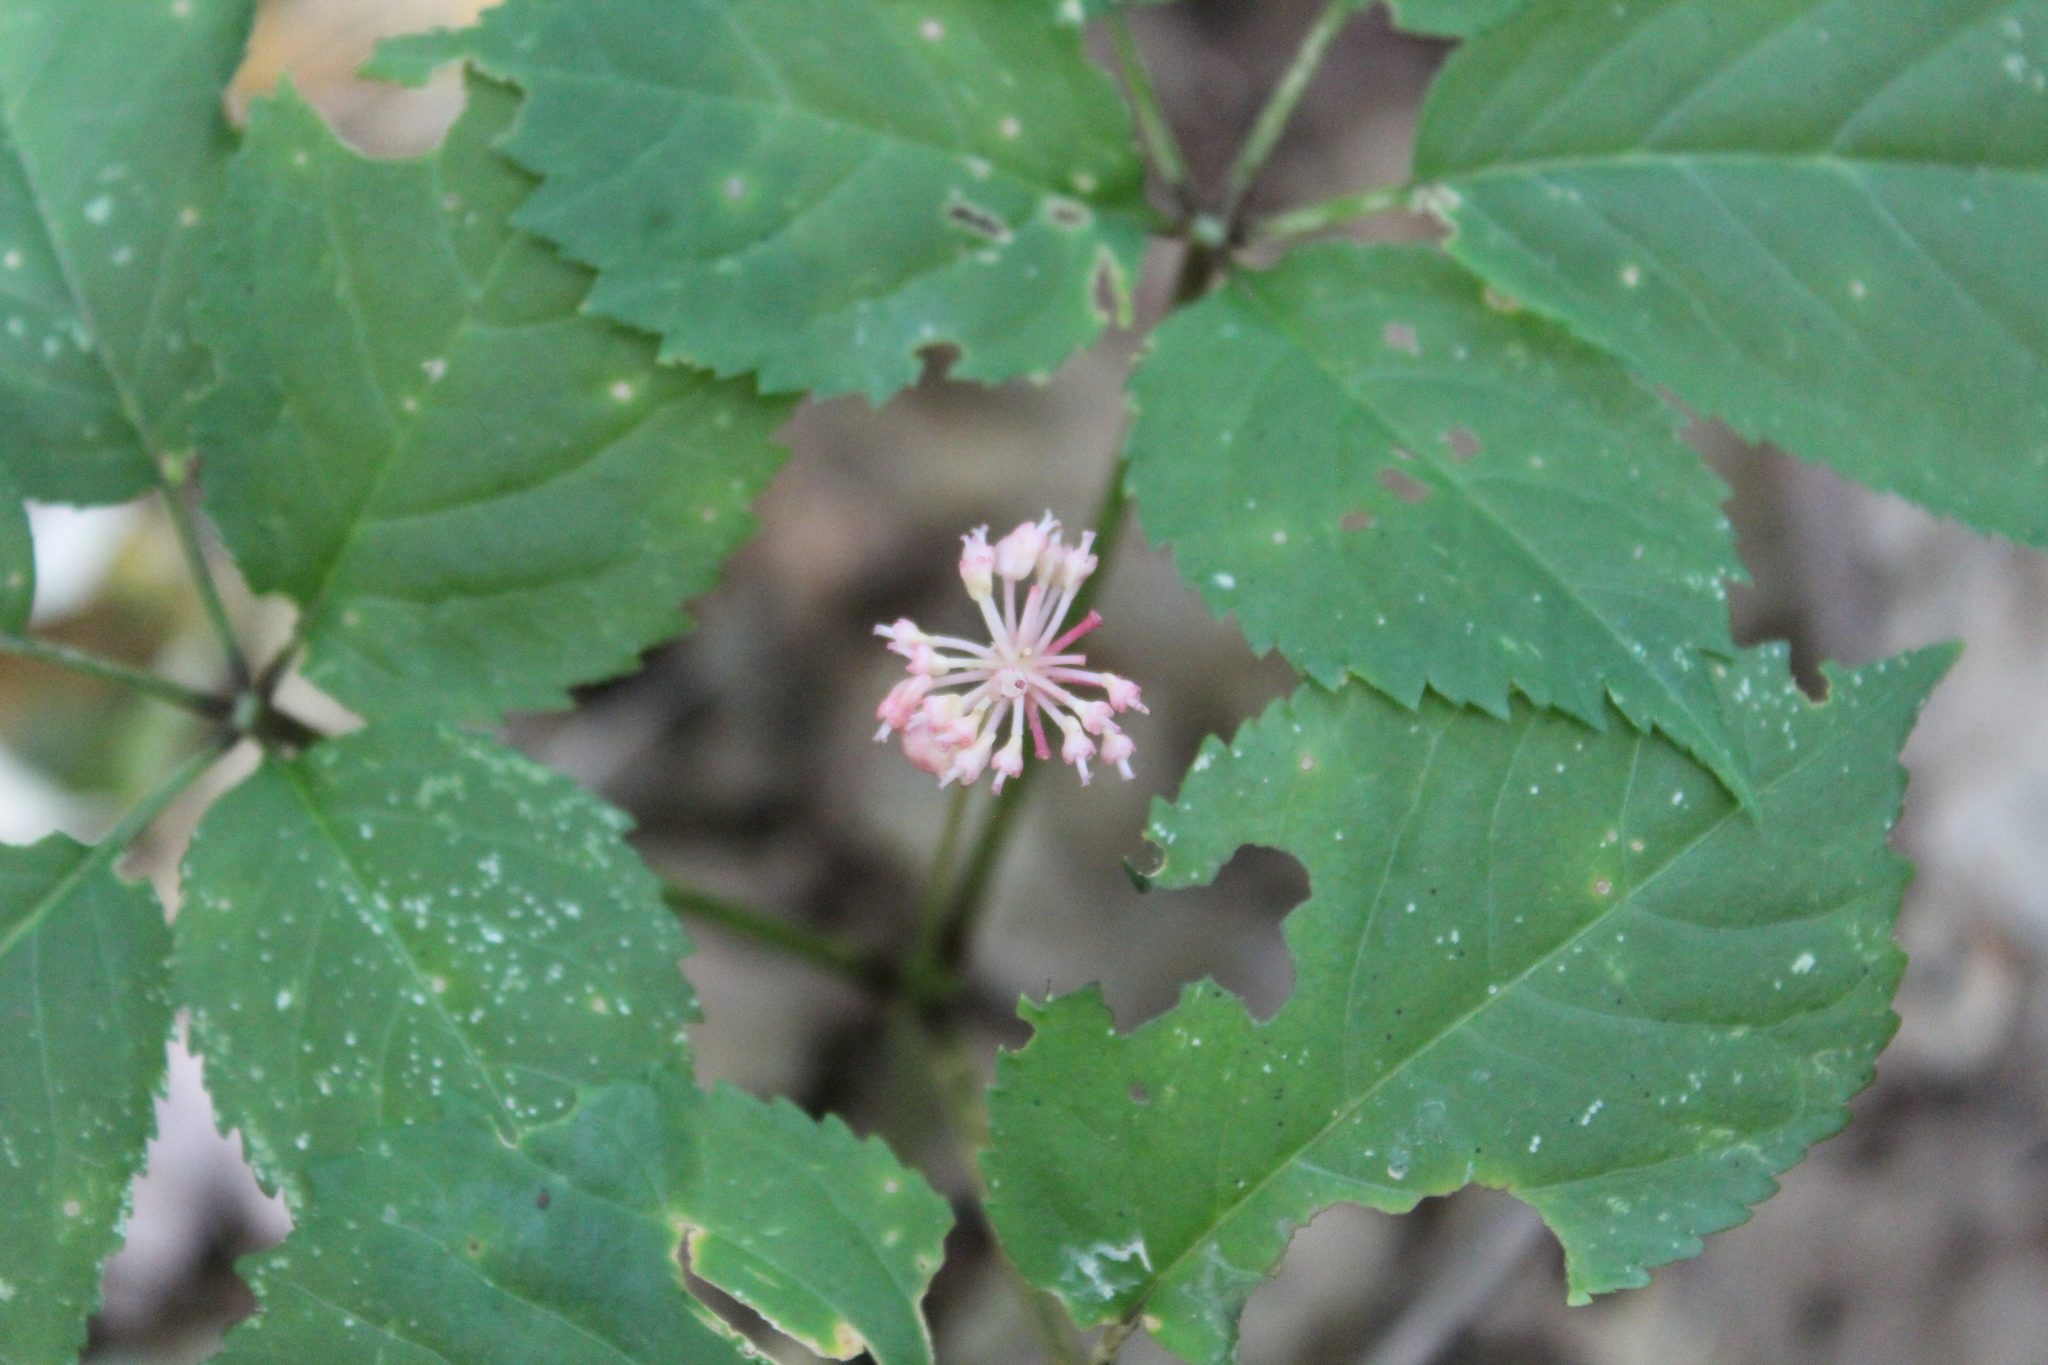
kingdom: Plantae
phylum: Tracheophyta
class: Magnoliopsida
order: Apiales
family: Araliaceae
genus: Panax
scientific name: Panax quinquefolius
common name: American ginseng
